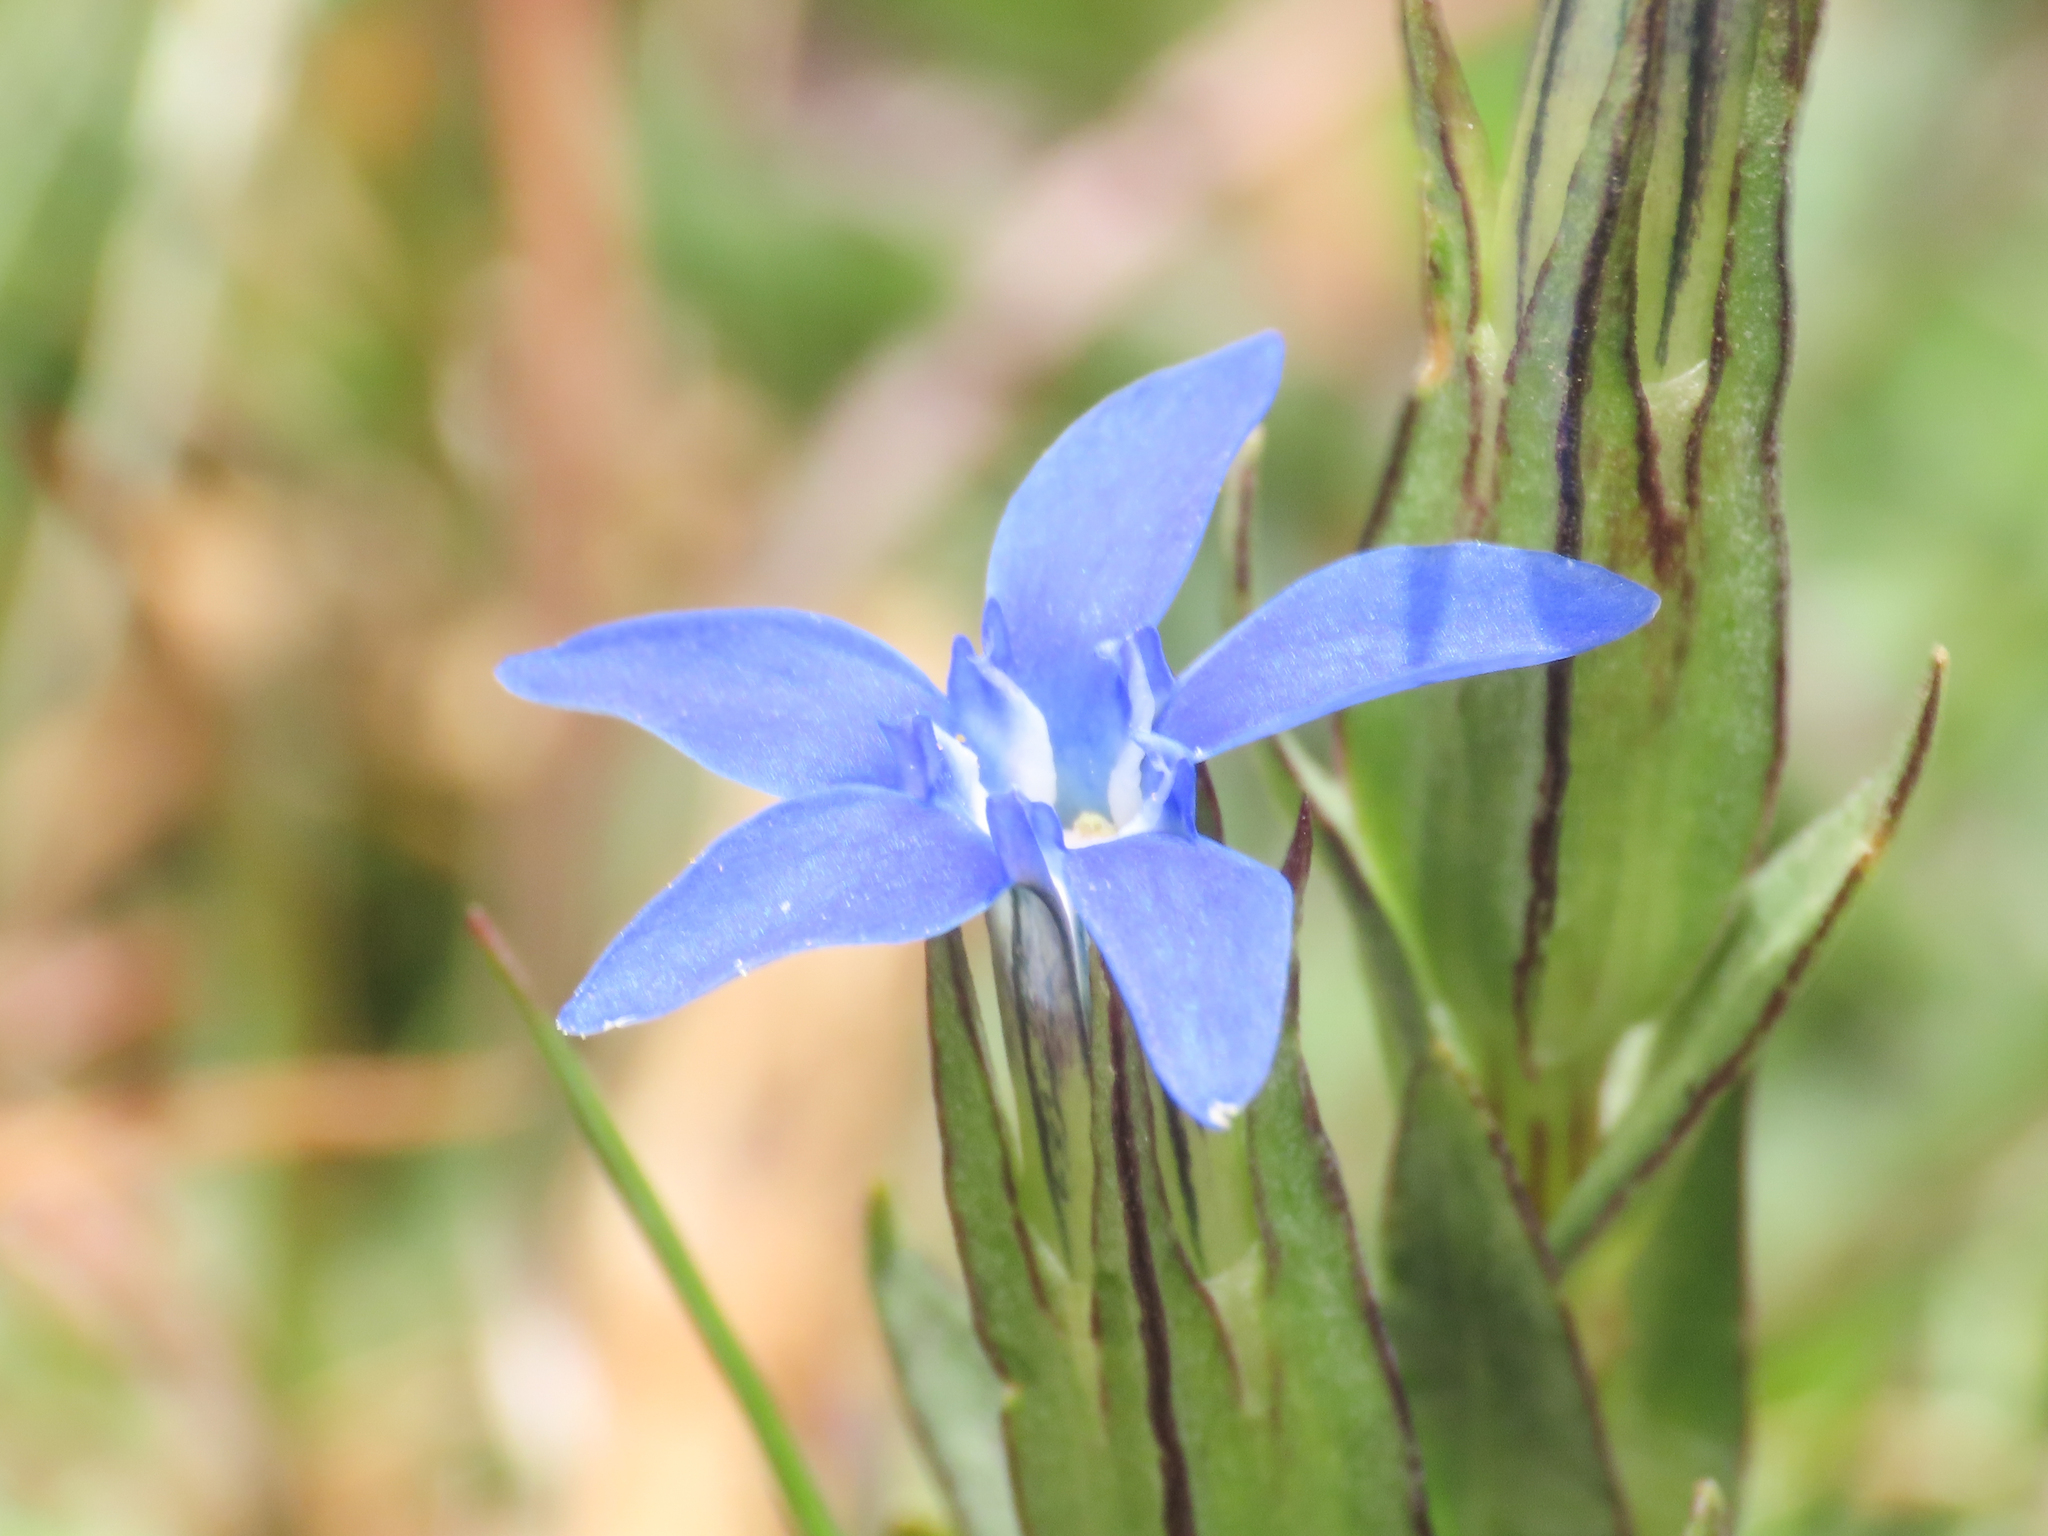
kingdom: Plantae
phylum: Tracheophyta
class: Magnoliopsida
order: Gentianales
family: Gentianaceae
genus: Gentiana
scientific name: Gentiana nivalis
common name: Alpine gentian
